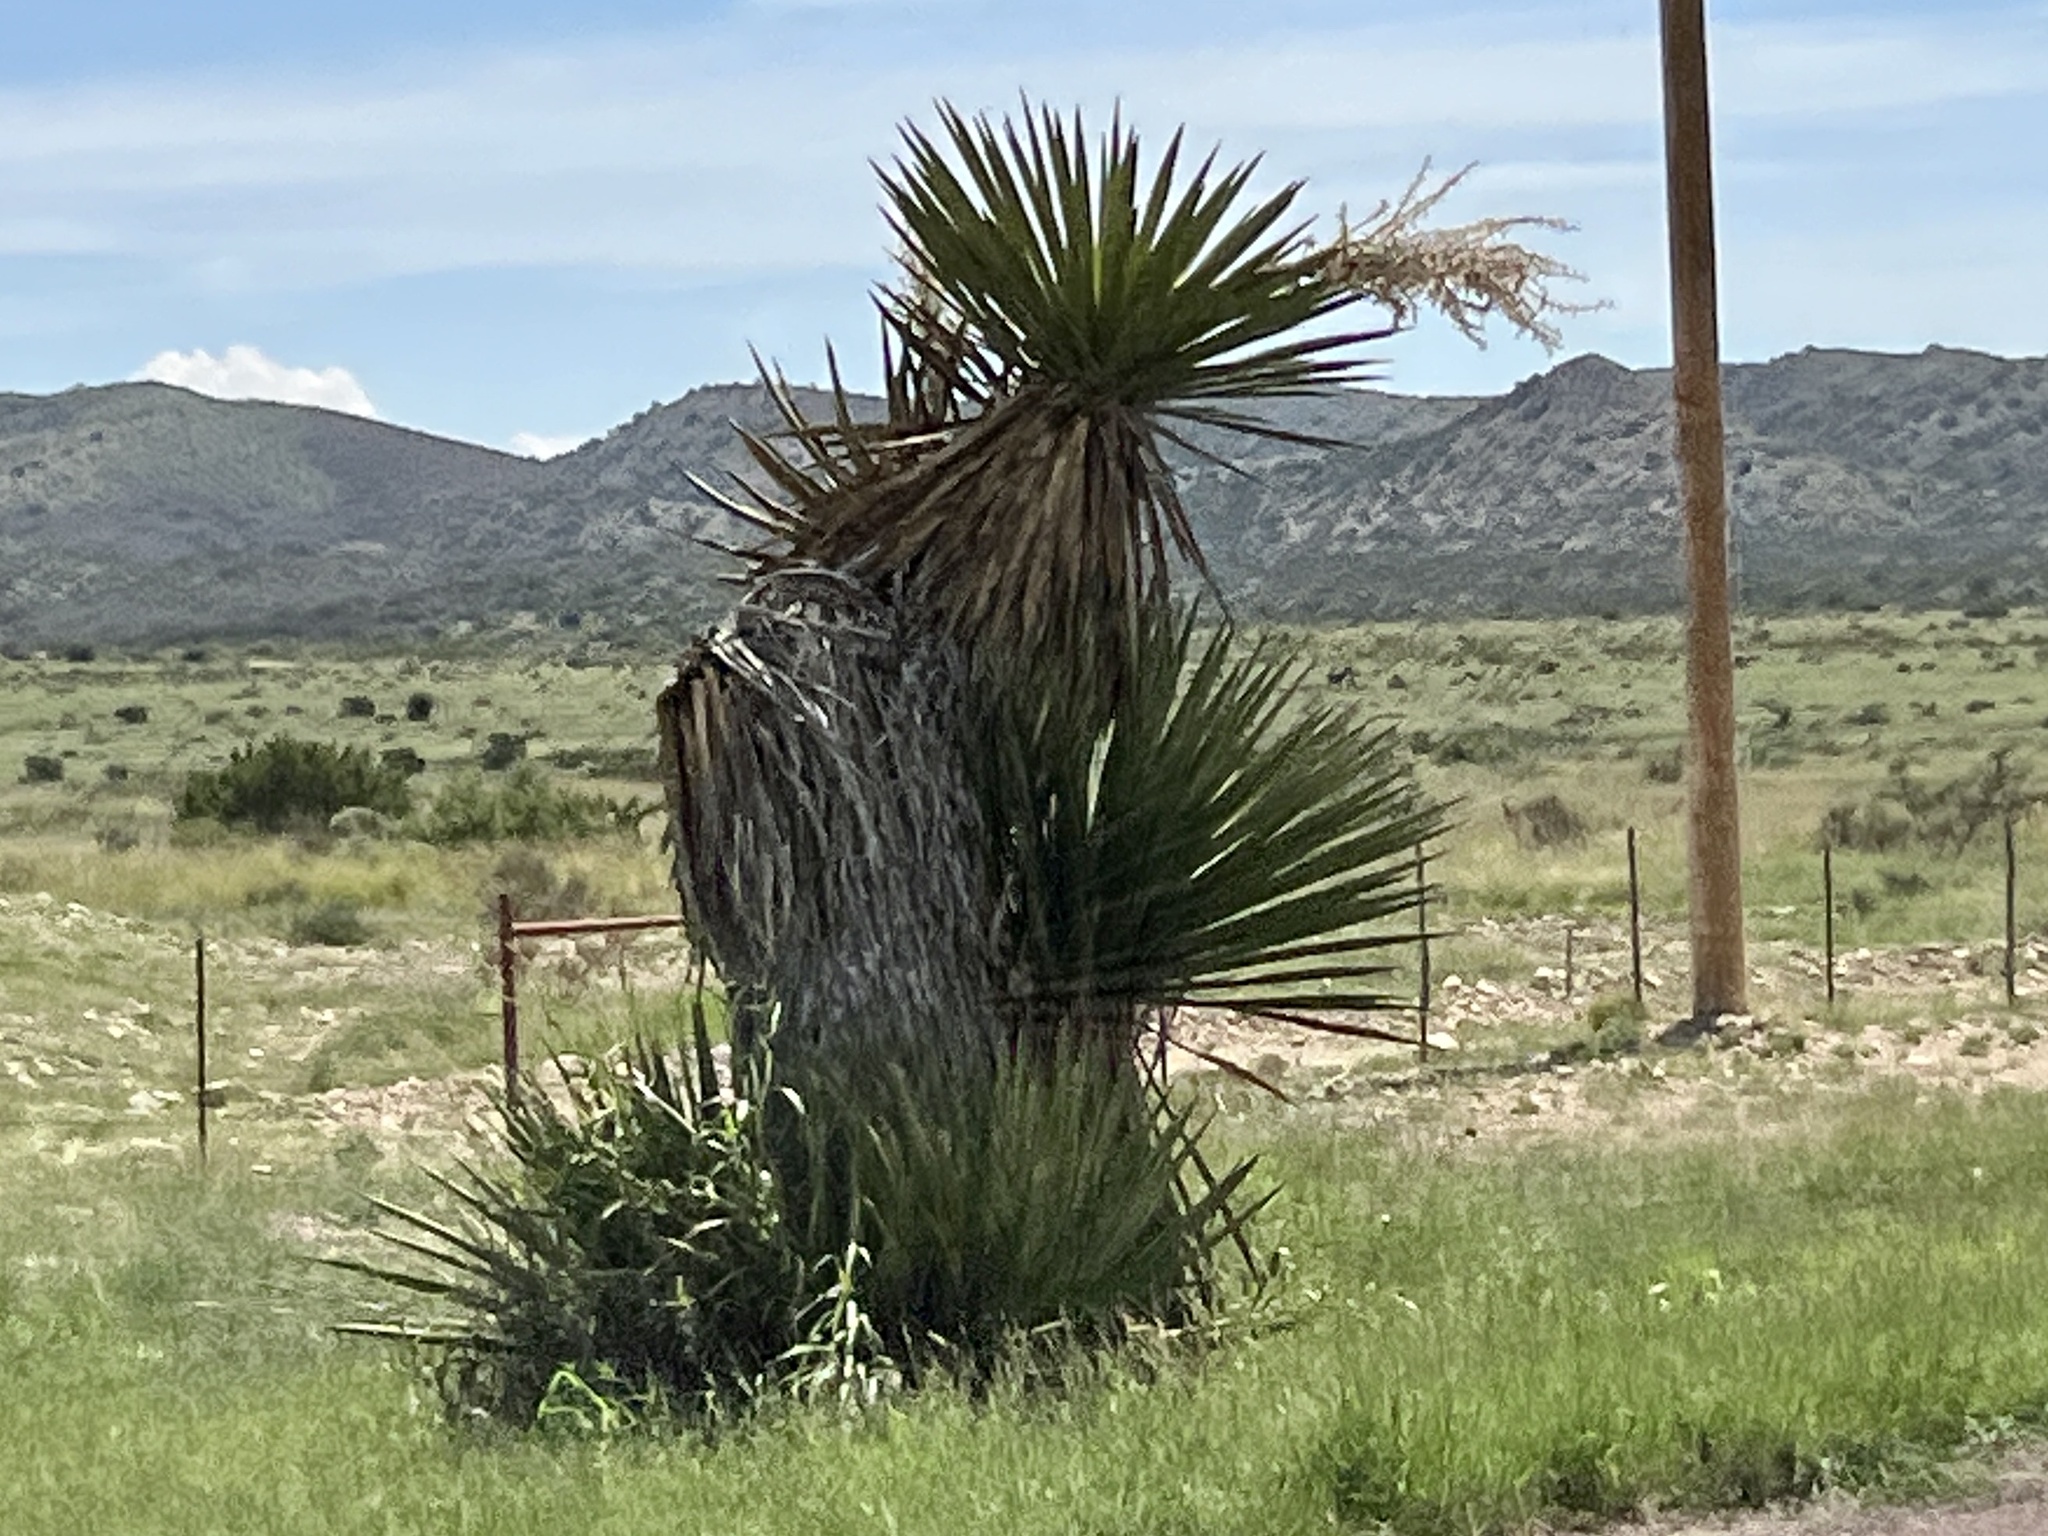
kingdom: Plantae
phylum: Tracheophyta
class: Liliopsida
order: Asparagales
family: Asparagaceae
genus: Yucca
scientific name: Yucca treculiana
